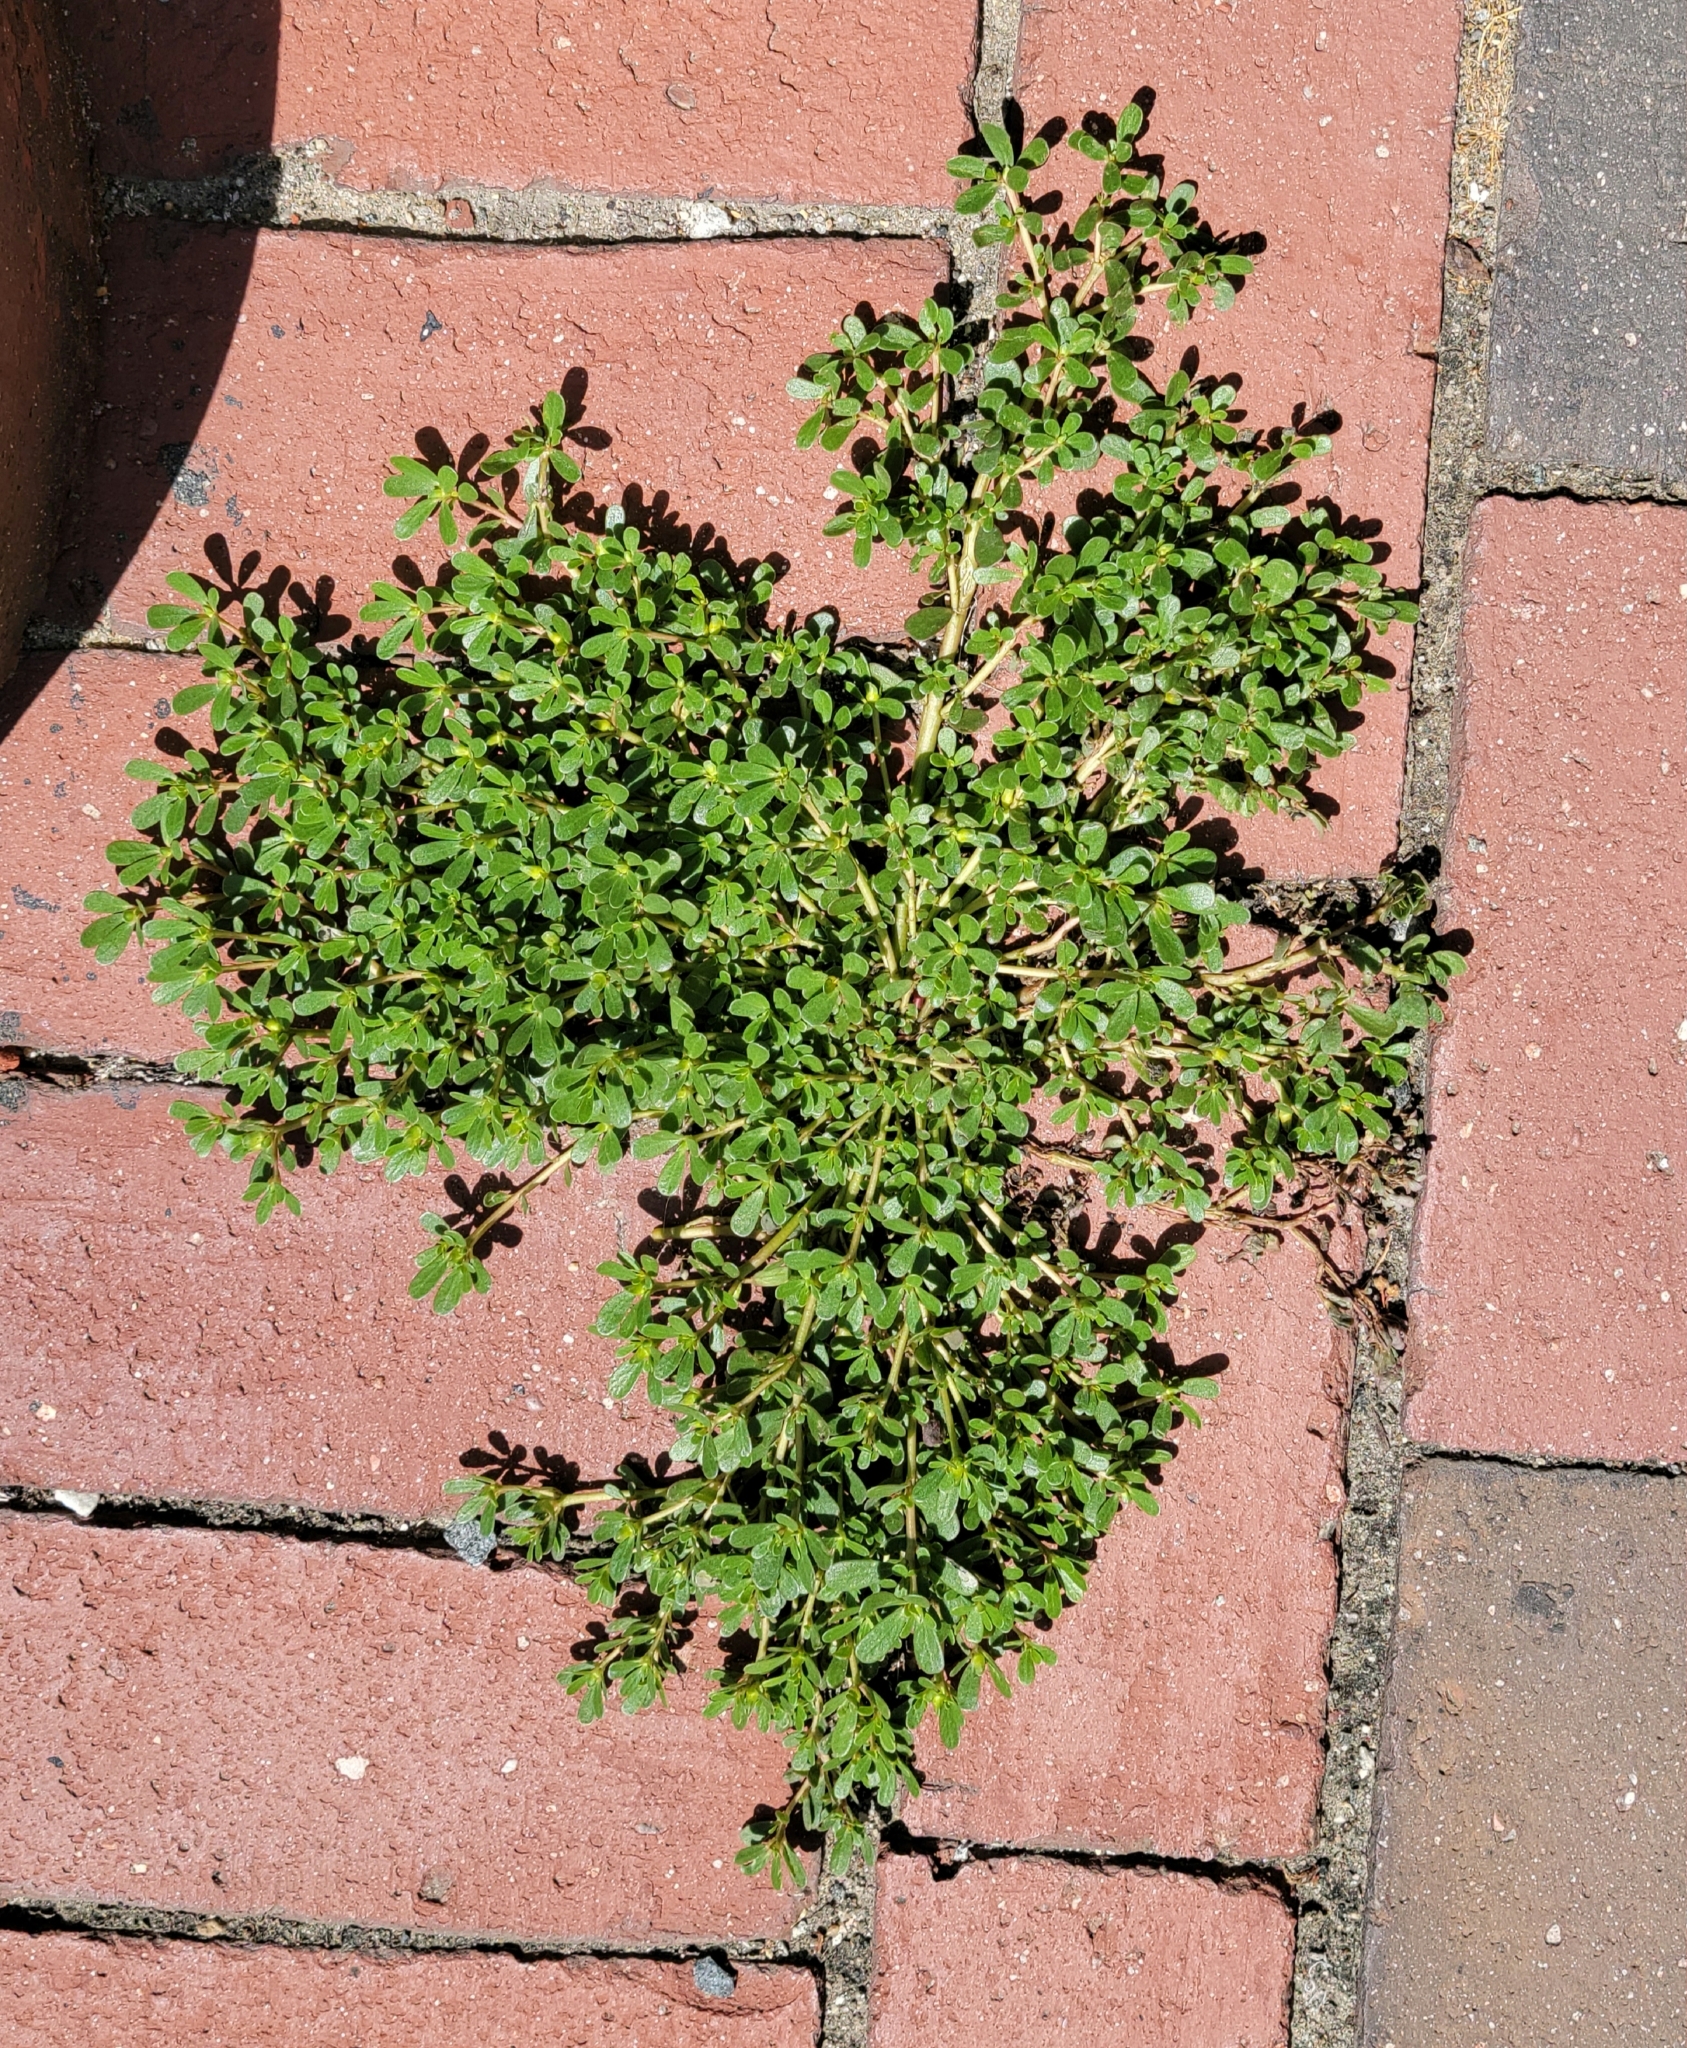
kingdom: Plantae
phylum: Tracheophyta
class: Magnoliopsida
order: Caryophyllales
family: Portulacaceae
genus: Portulaca
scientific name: Portulaca oleracea
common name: Common purslane
